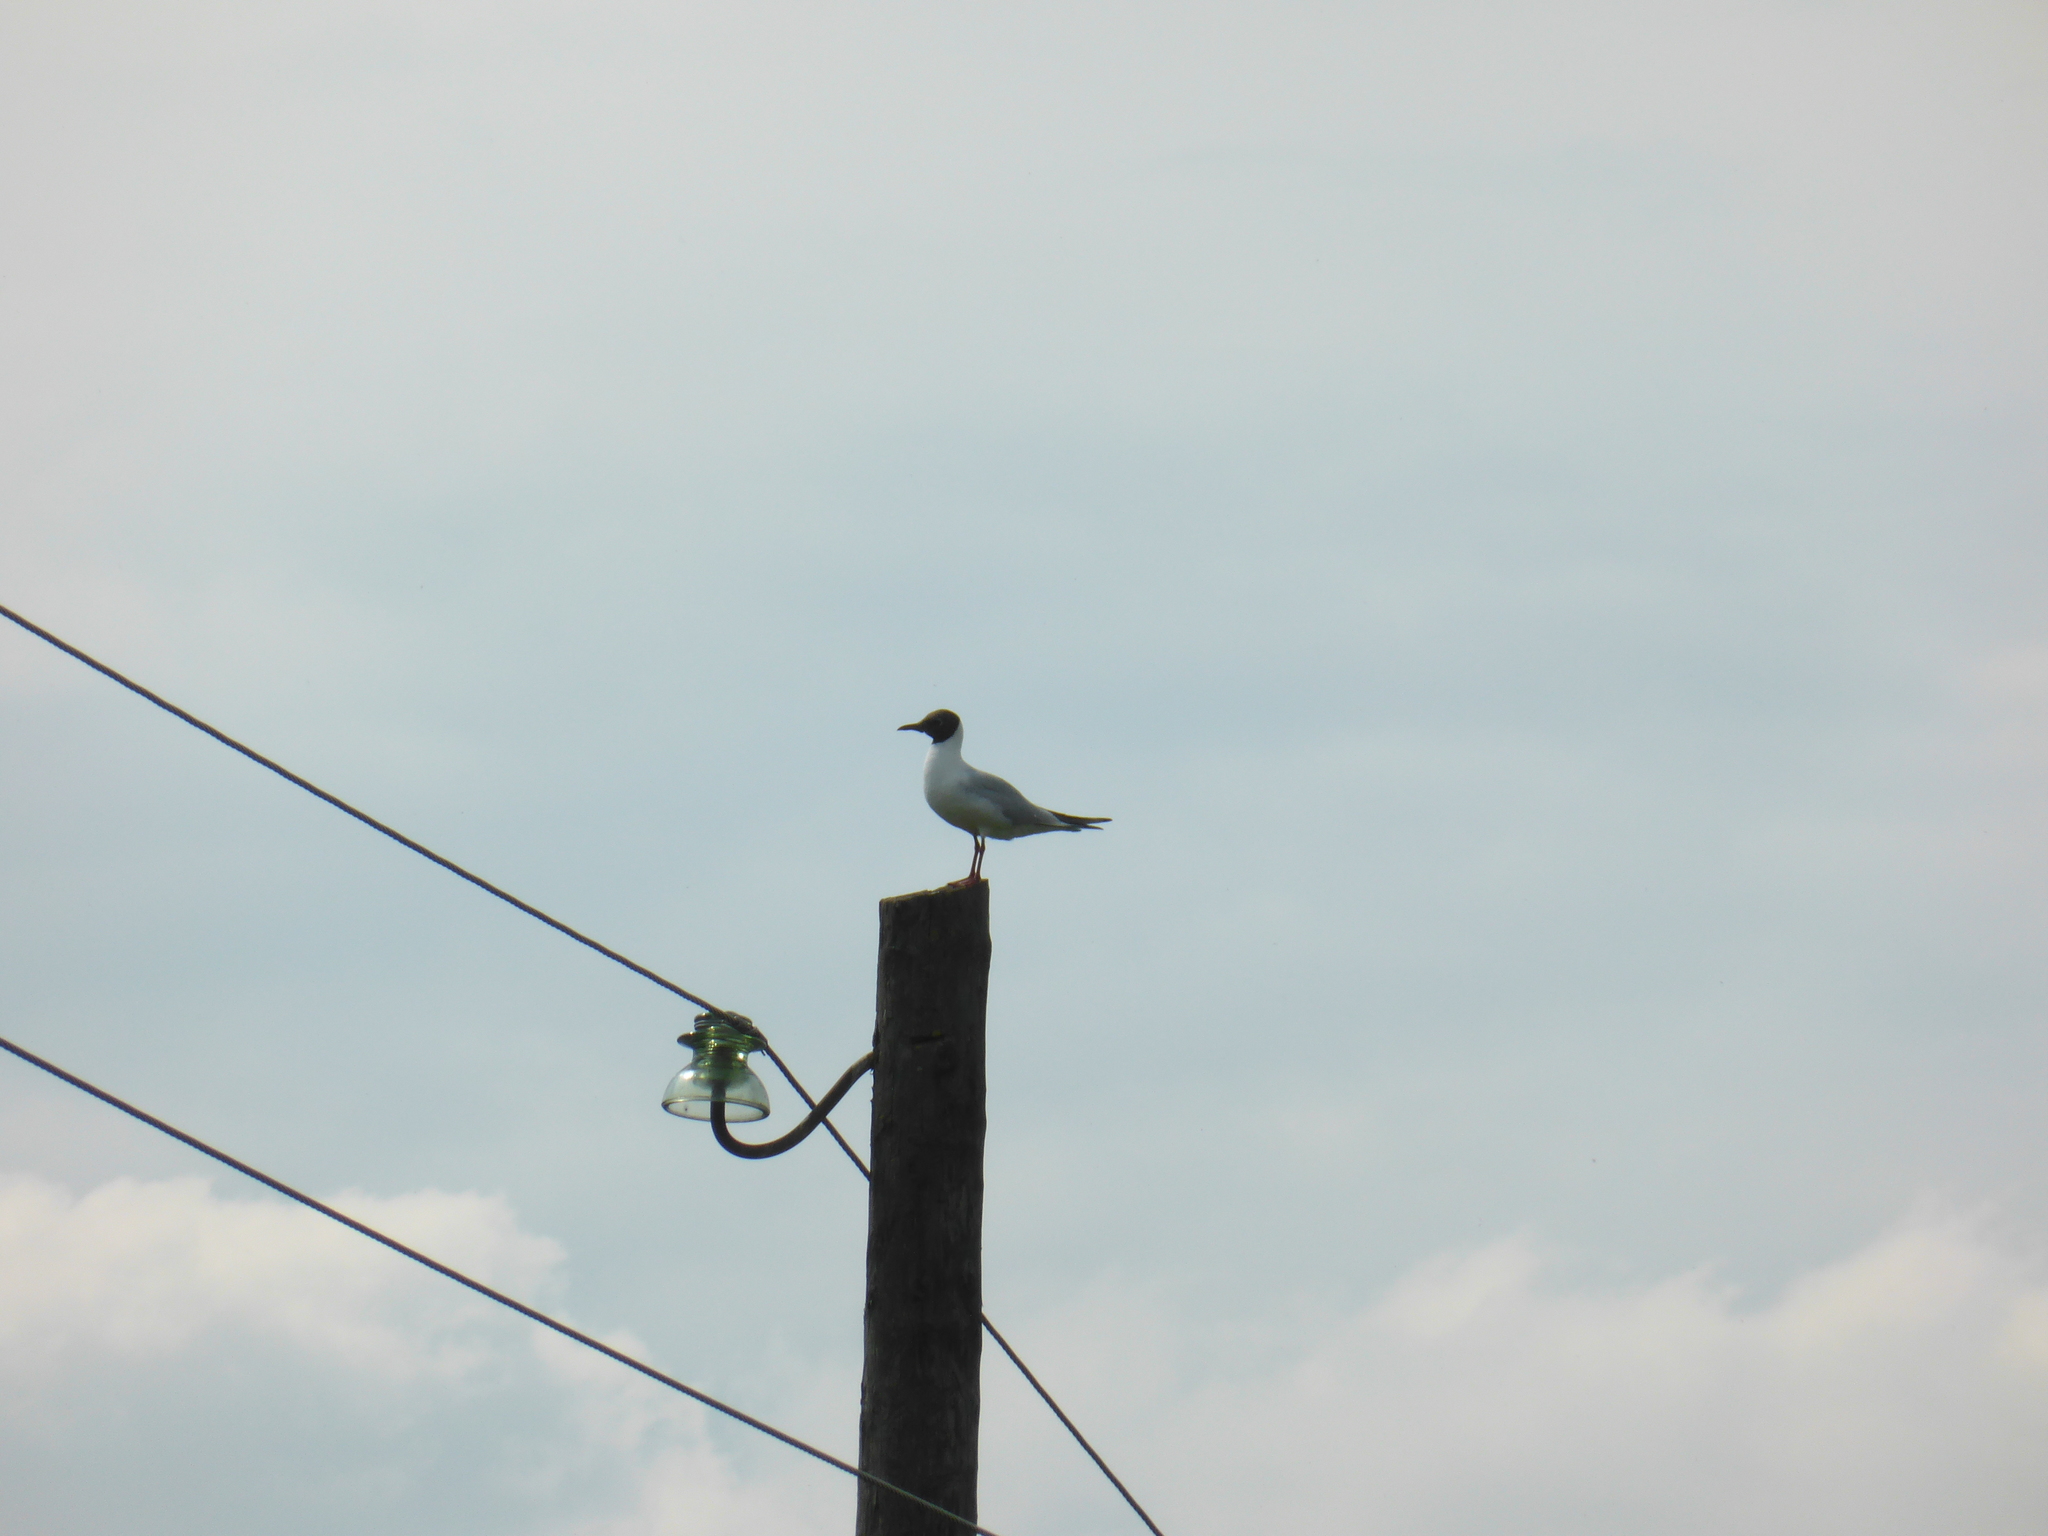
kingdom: Animalia
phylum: Chordata
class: Aves
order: Charadriiformes
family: Laridae
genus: Chroicocephalus
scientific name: Chroicocephalus ridibundus
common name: Black-headed gull
